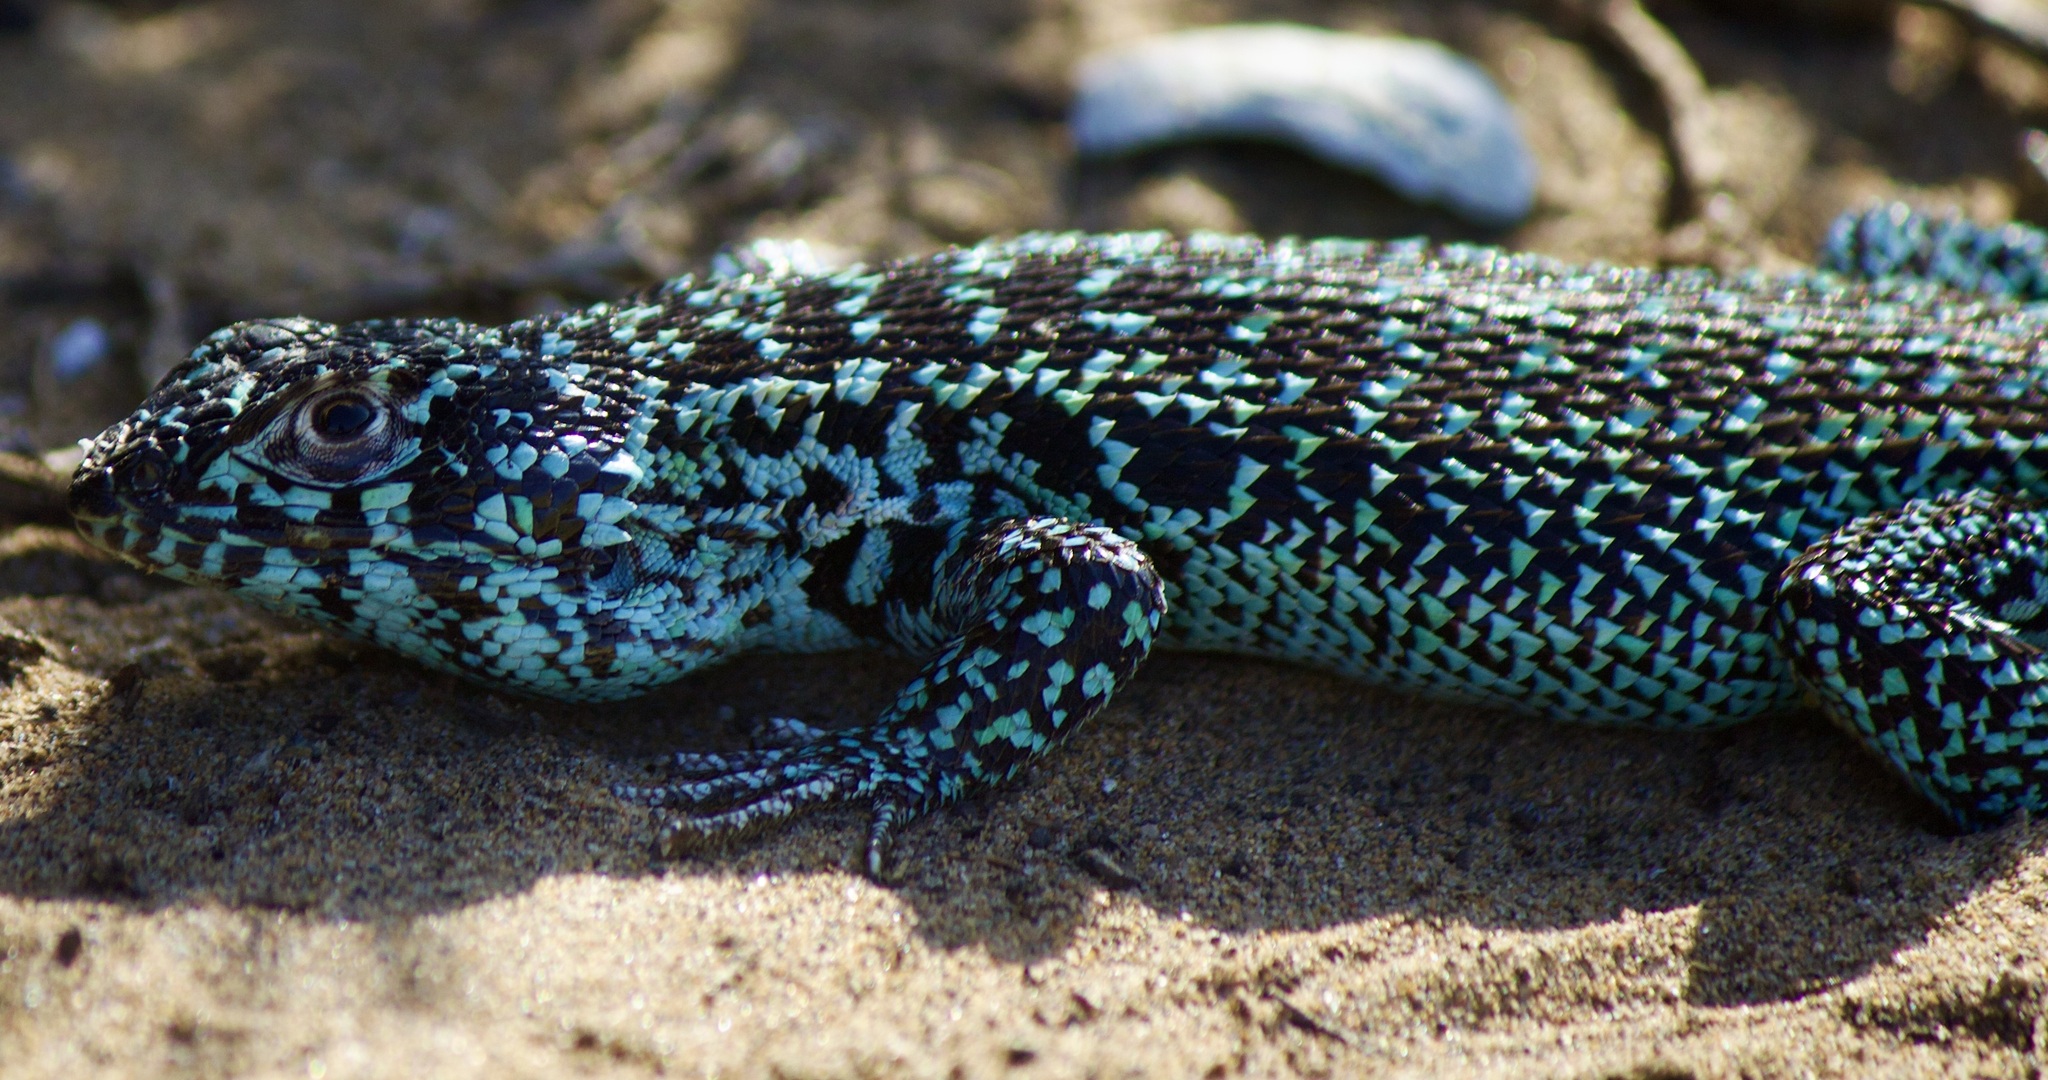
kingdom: Animalia
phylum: Chordata
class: Squamata
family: Liolaemidae
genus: Liolaemus
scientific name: Liolaemus zapallarensis
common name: Zapallaren tree iguana
